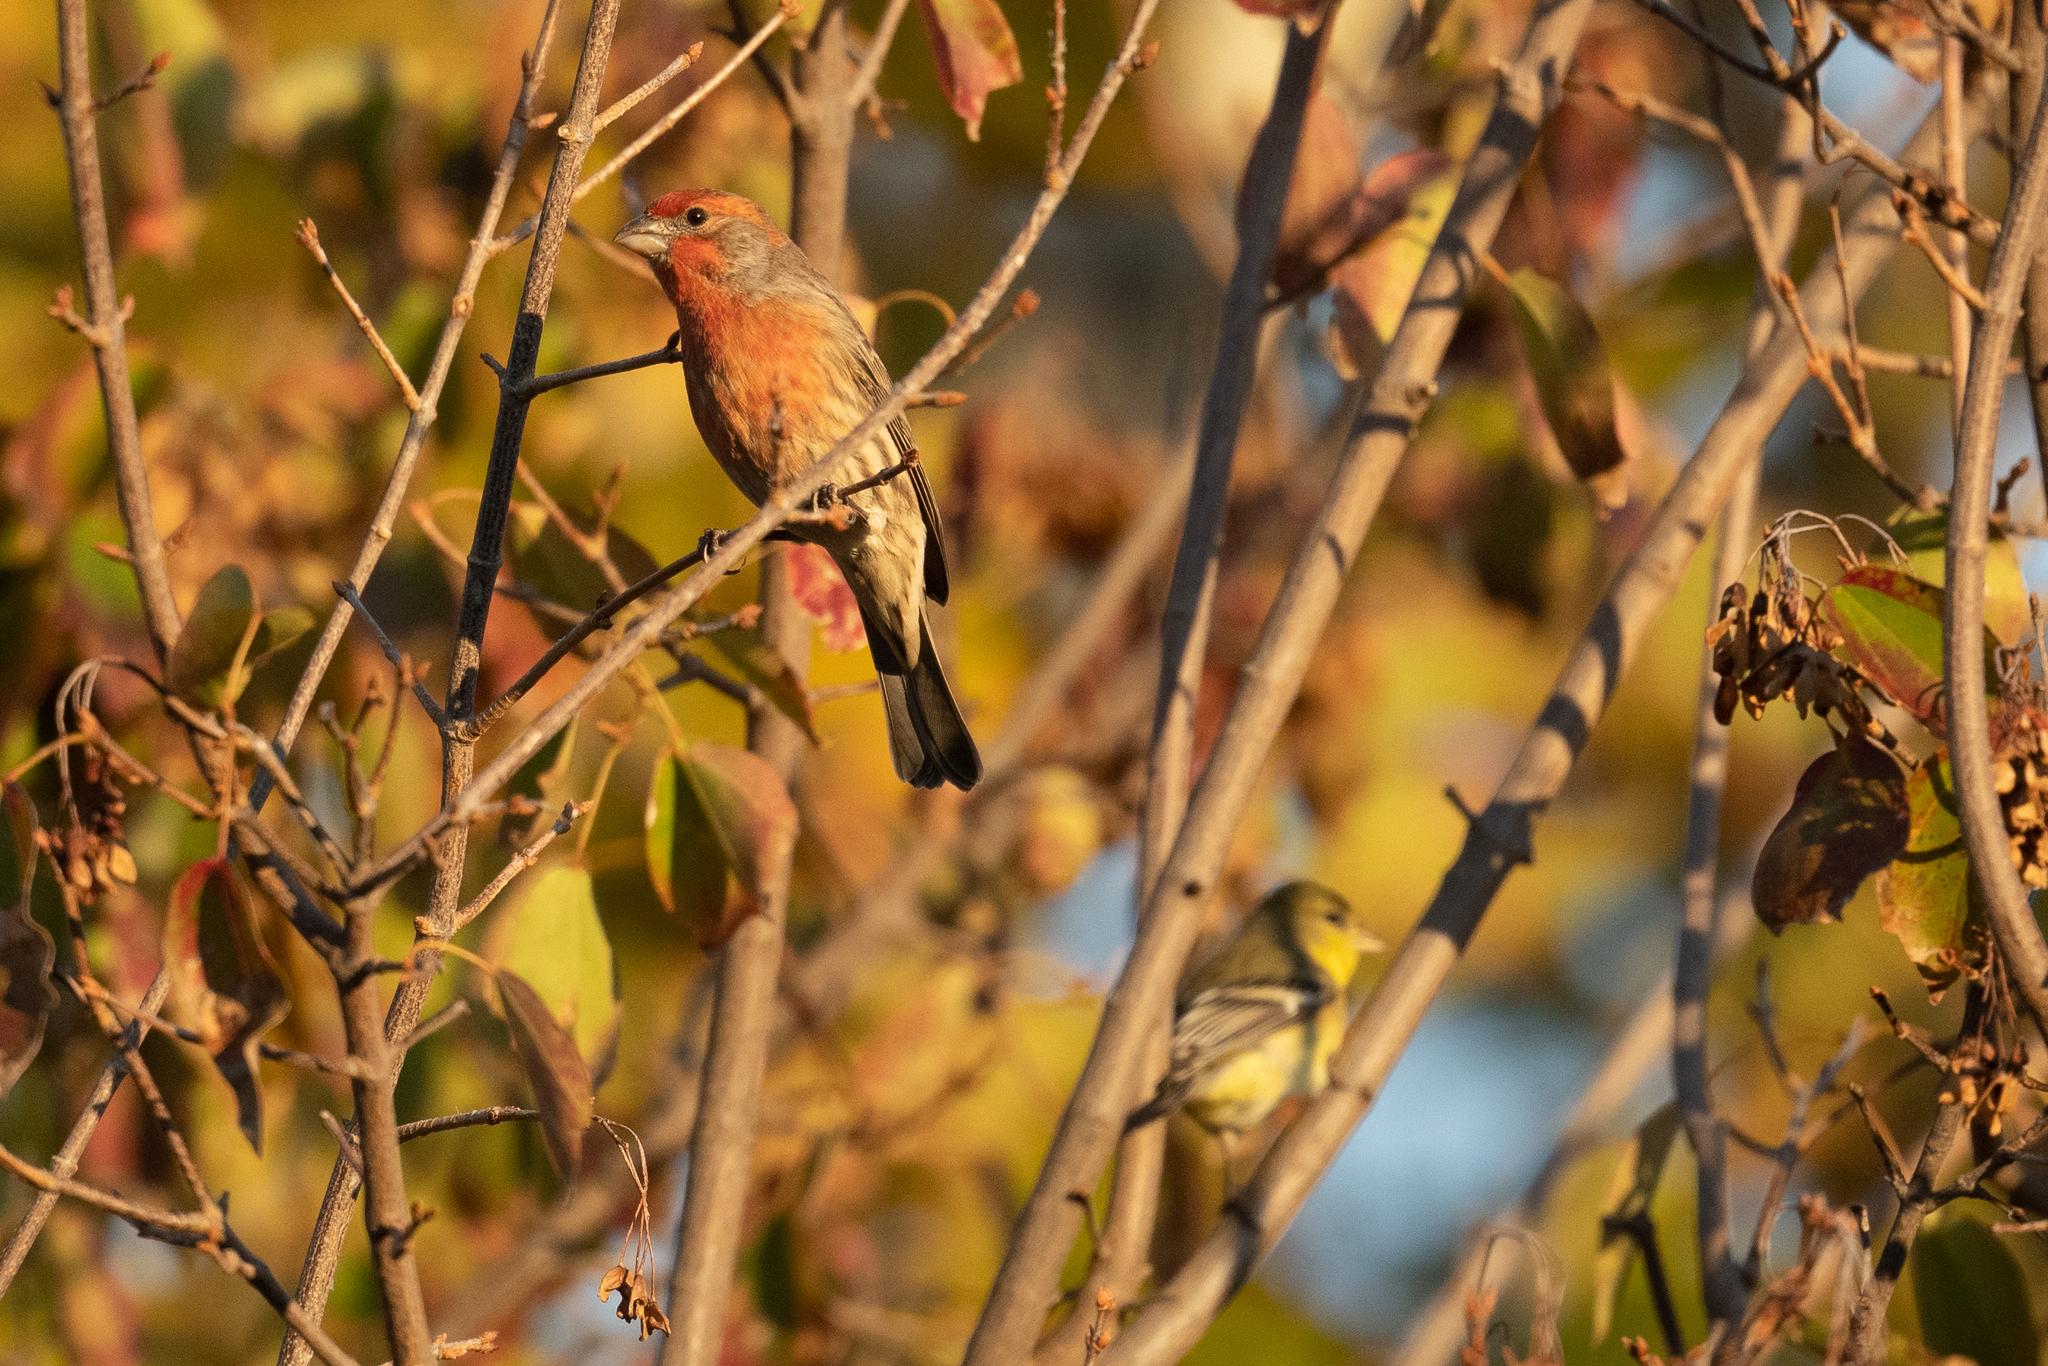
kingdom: Animalia
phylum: Chordata
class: Aves
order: Passeriformes
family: Fringillidae
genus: Haemorhous
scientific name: Haemorhous mexicanus
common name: House finch
